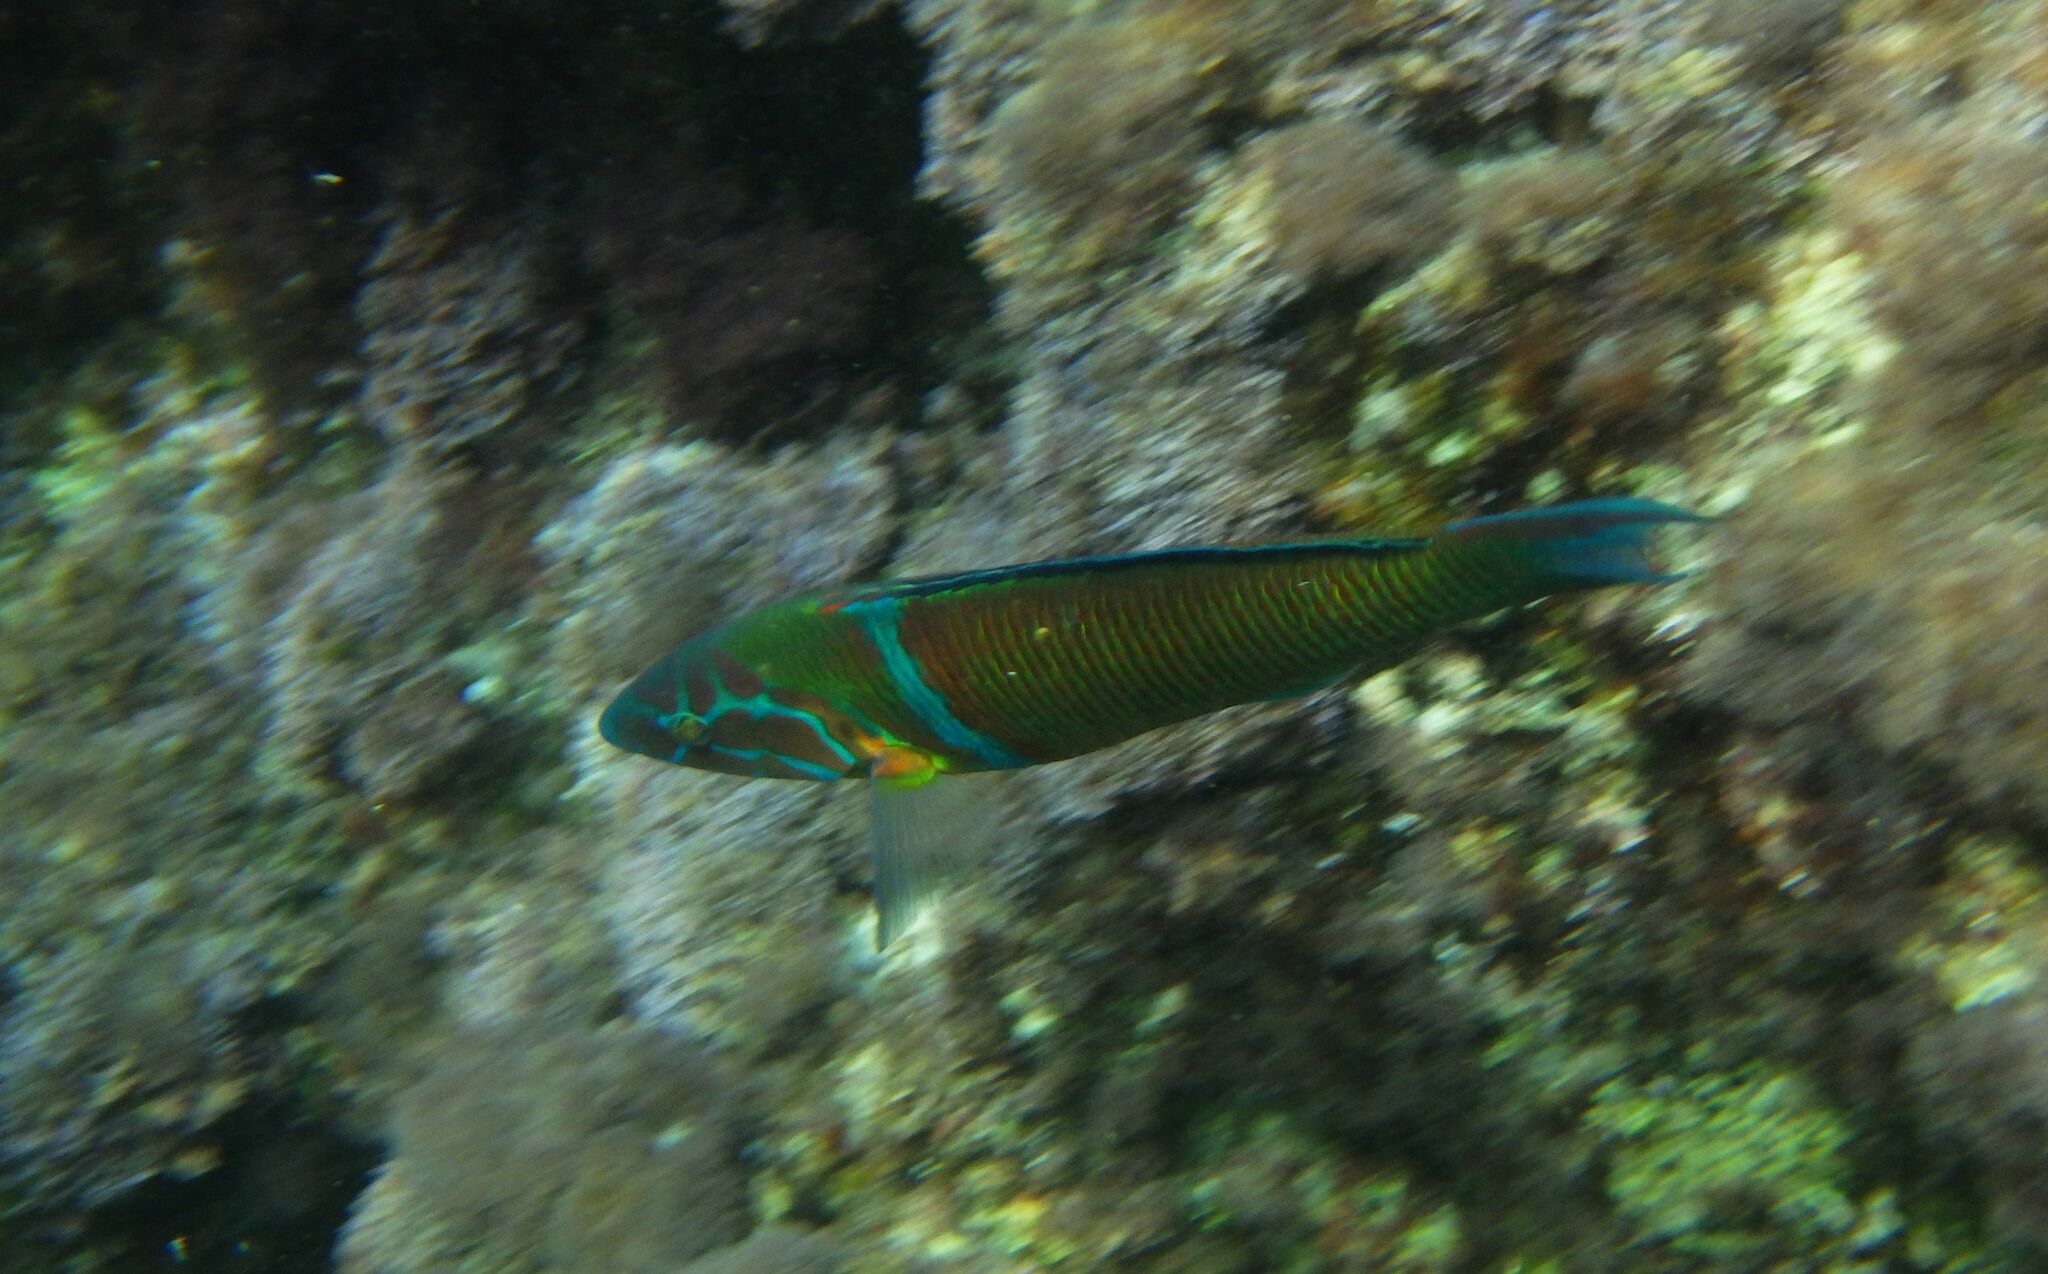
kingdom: Animalia
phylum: Chordata
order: Perciformes
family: Labridae
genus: Thalassoma
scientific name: Thalassoma pavo
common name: Ornate wrasse
